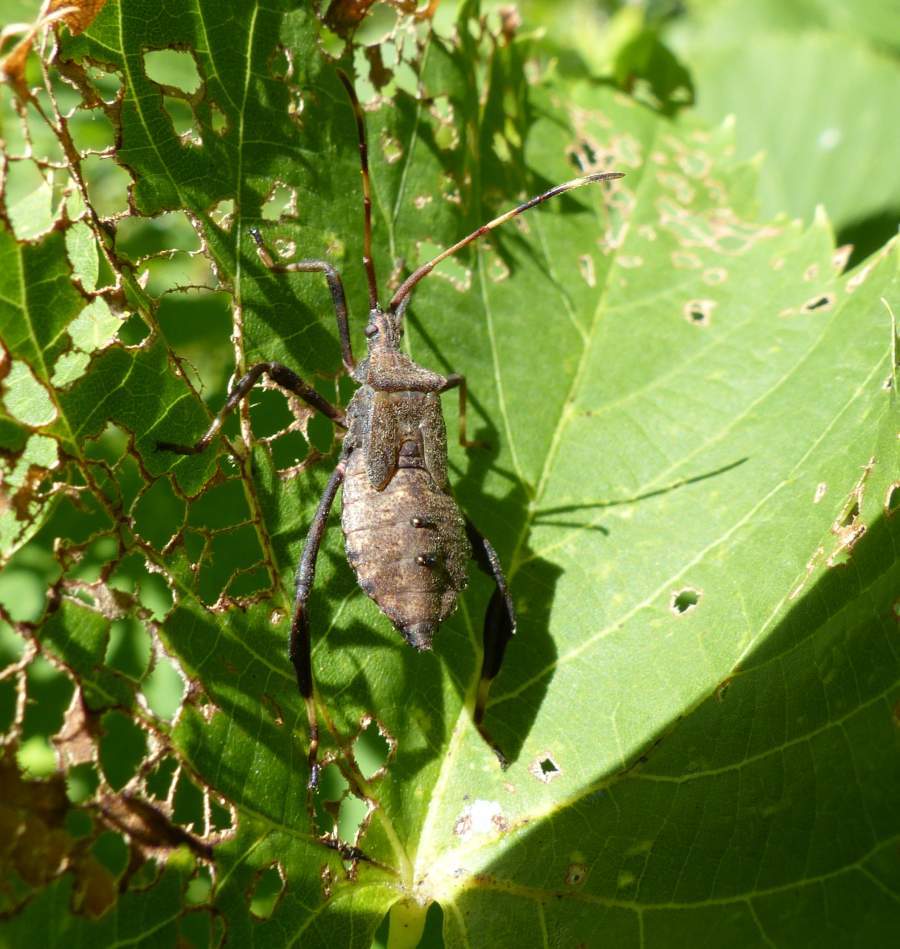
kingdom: Animalia
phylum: Arthropoda
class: Insecta
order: Hemiptera
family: Coreidae
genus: Acanthocephala
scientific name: Acanthocephala terminalis
